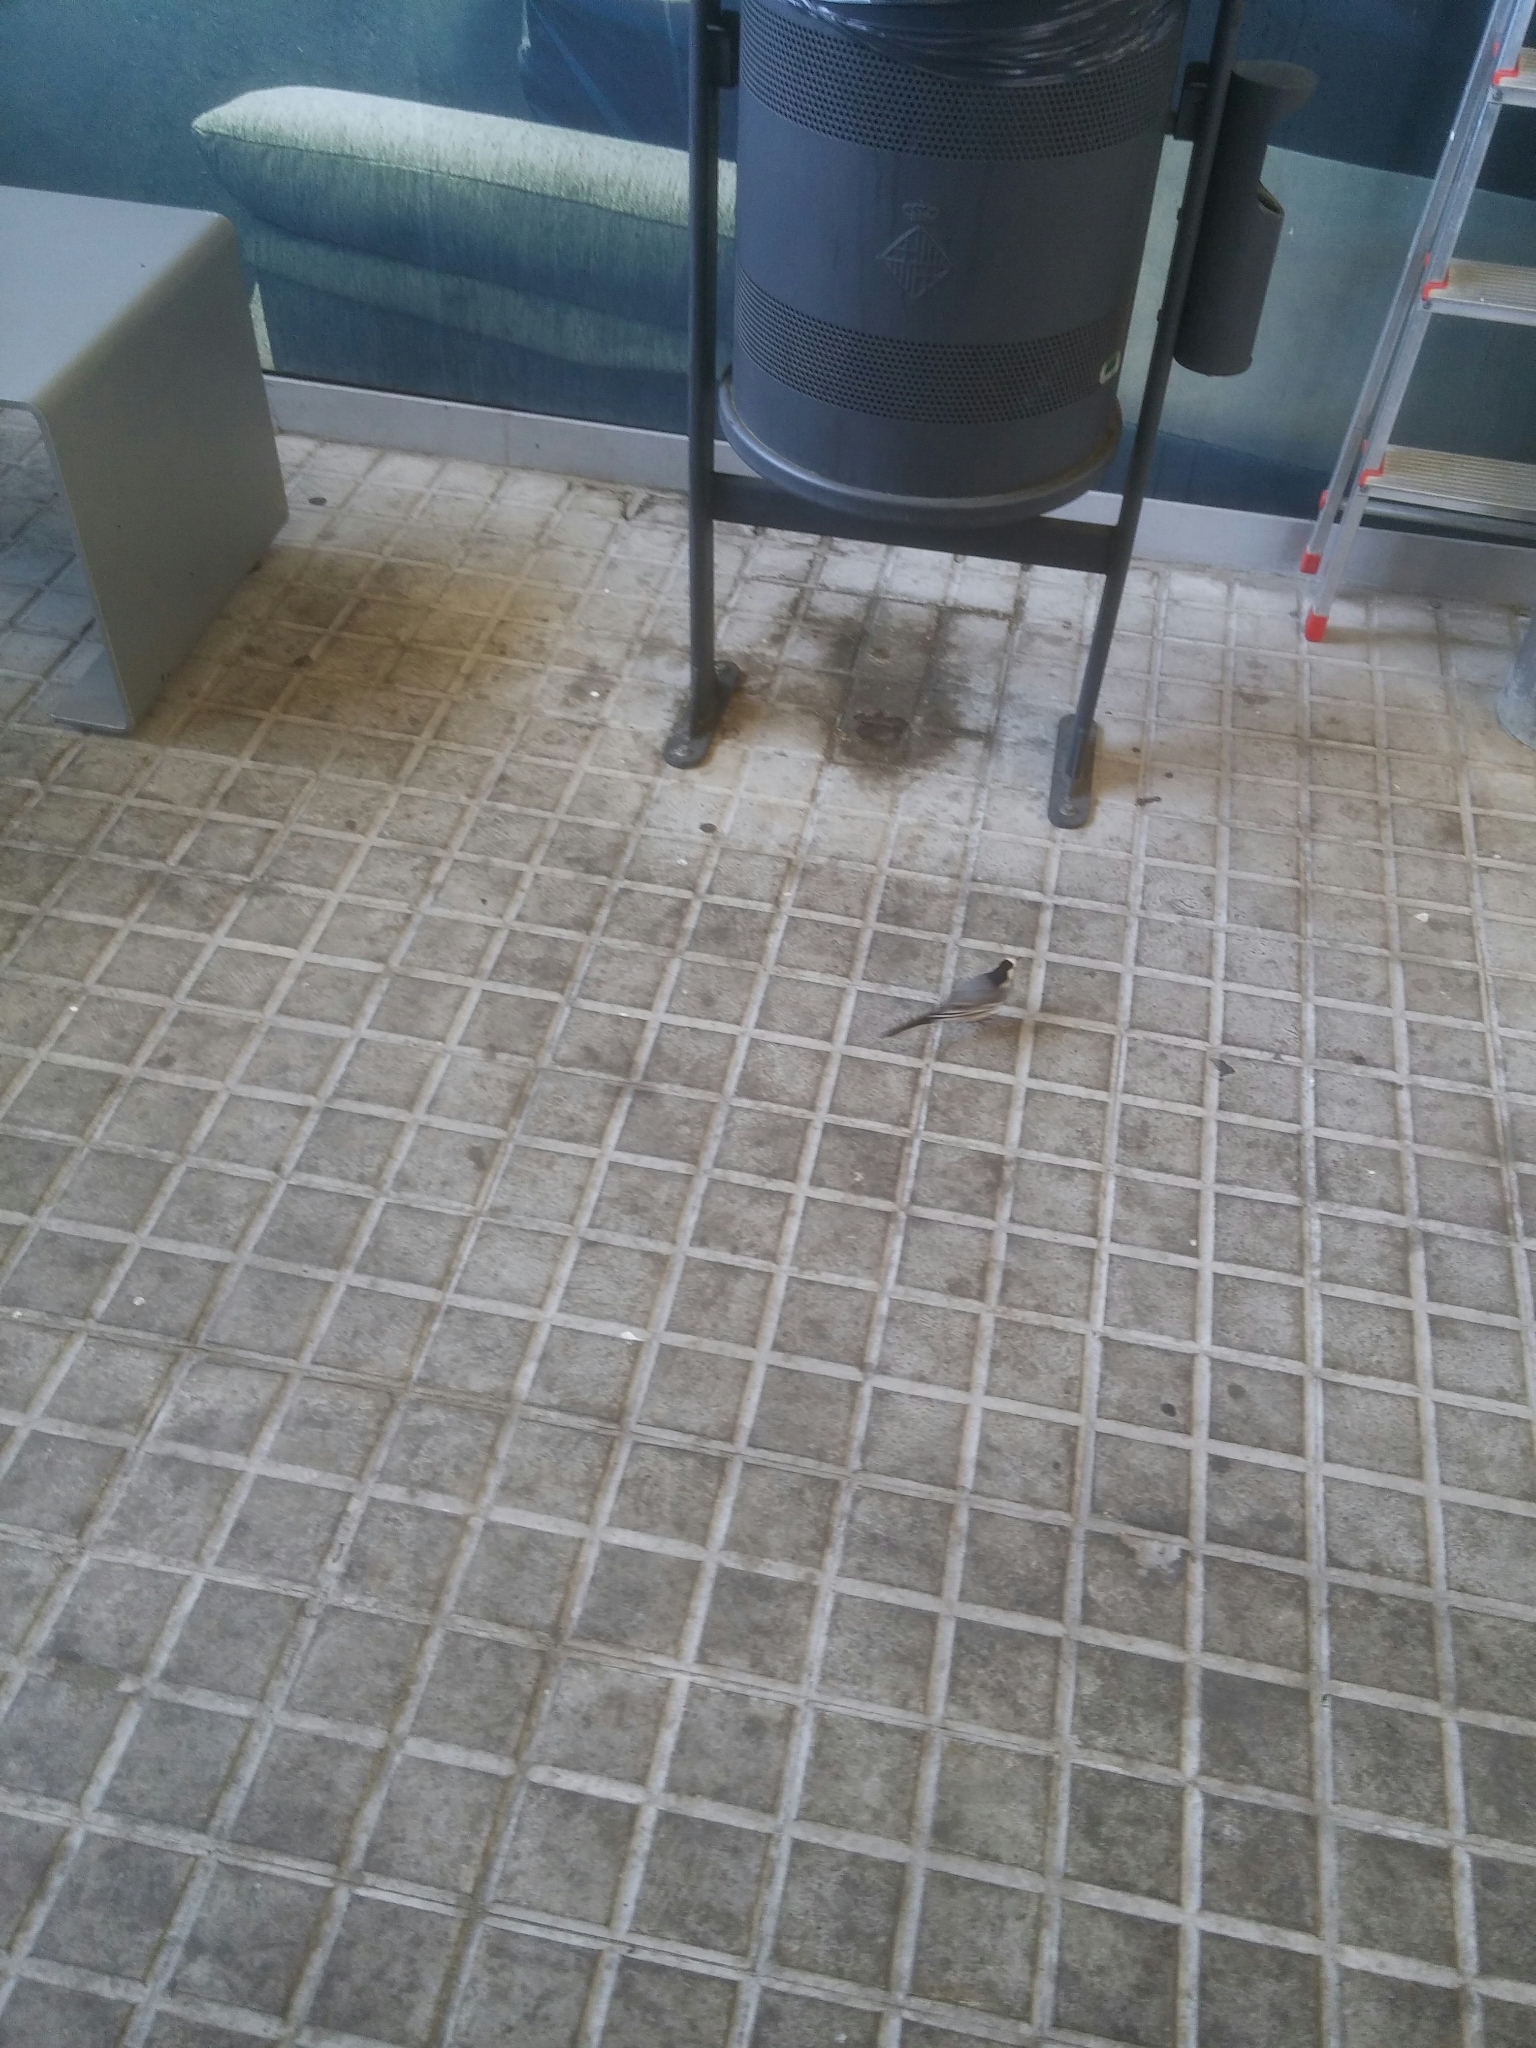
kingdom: Animalia
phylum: Chordata
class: Aves
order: Passeriformes
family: Motacillidae
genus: Motacilla
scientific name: Motacilla alba
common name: White wagtail
